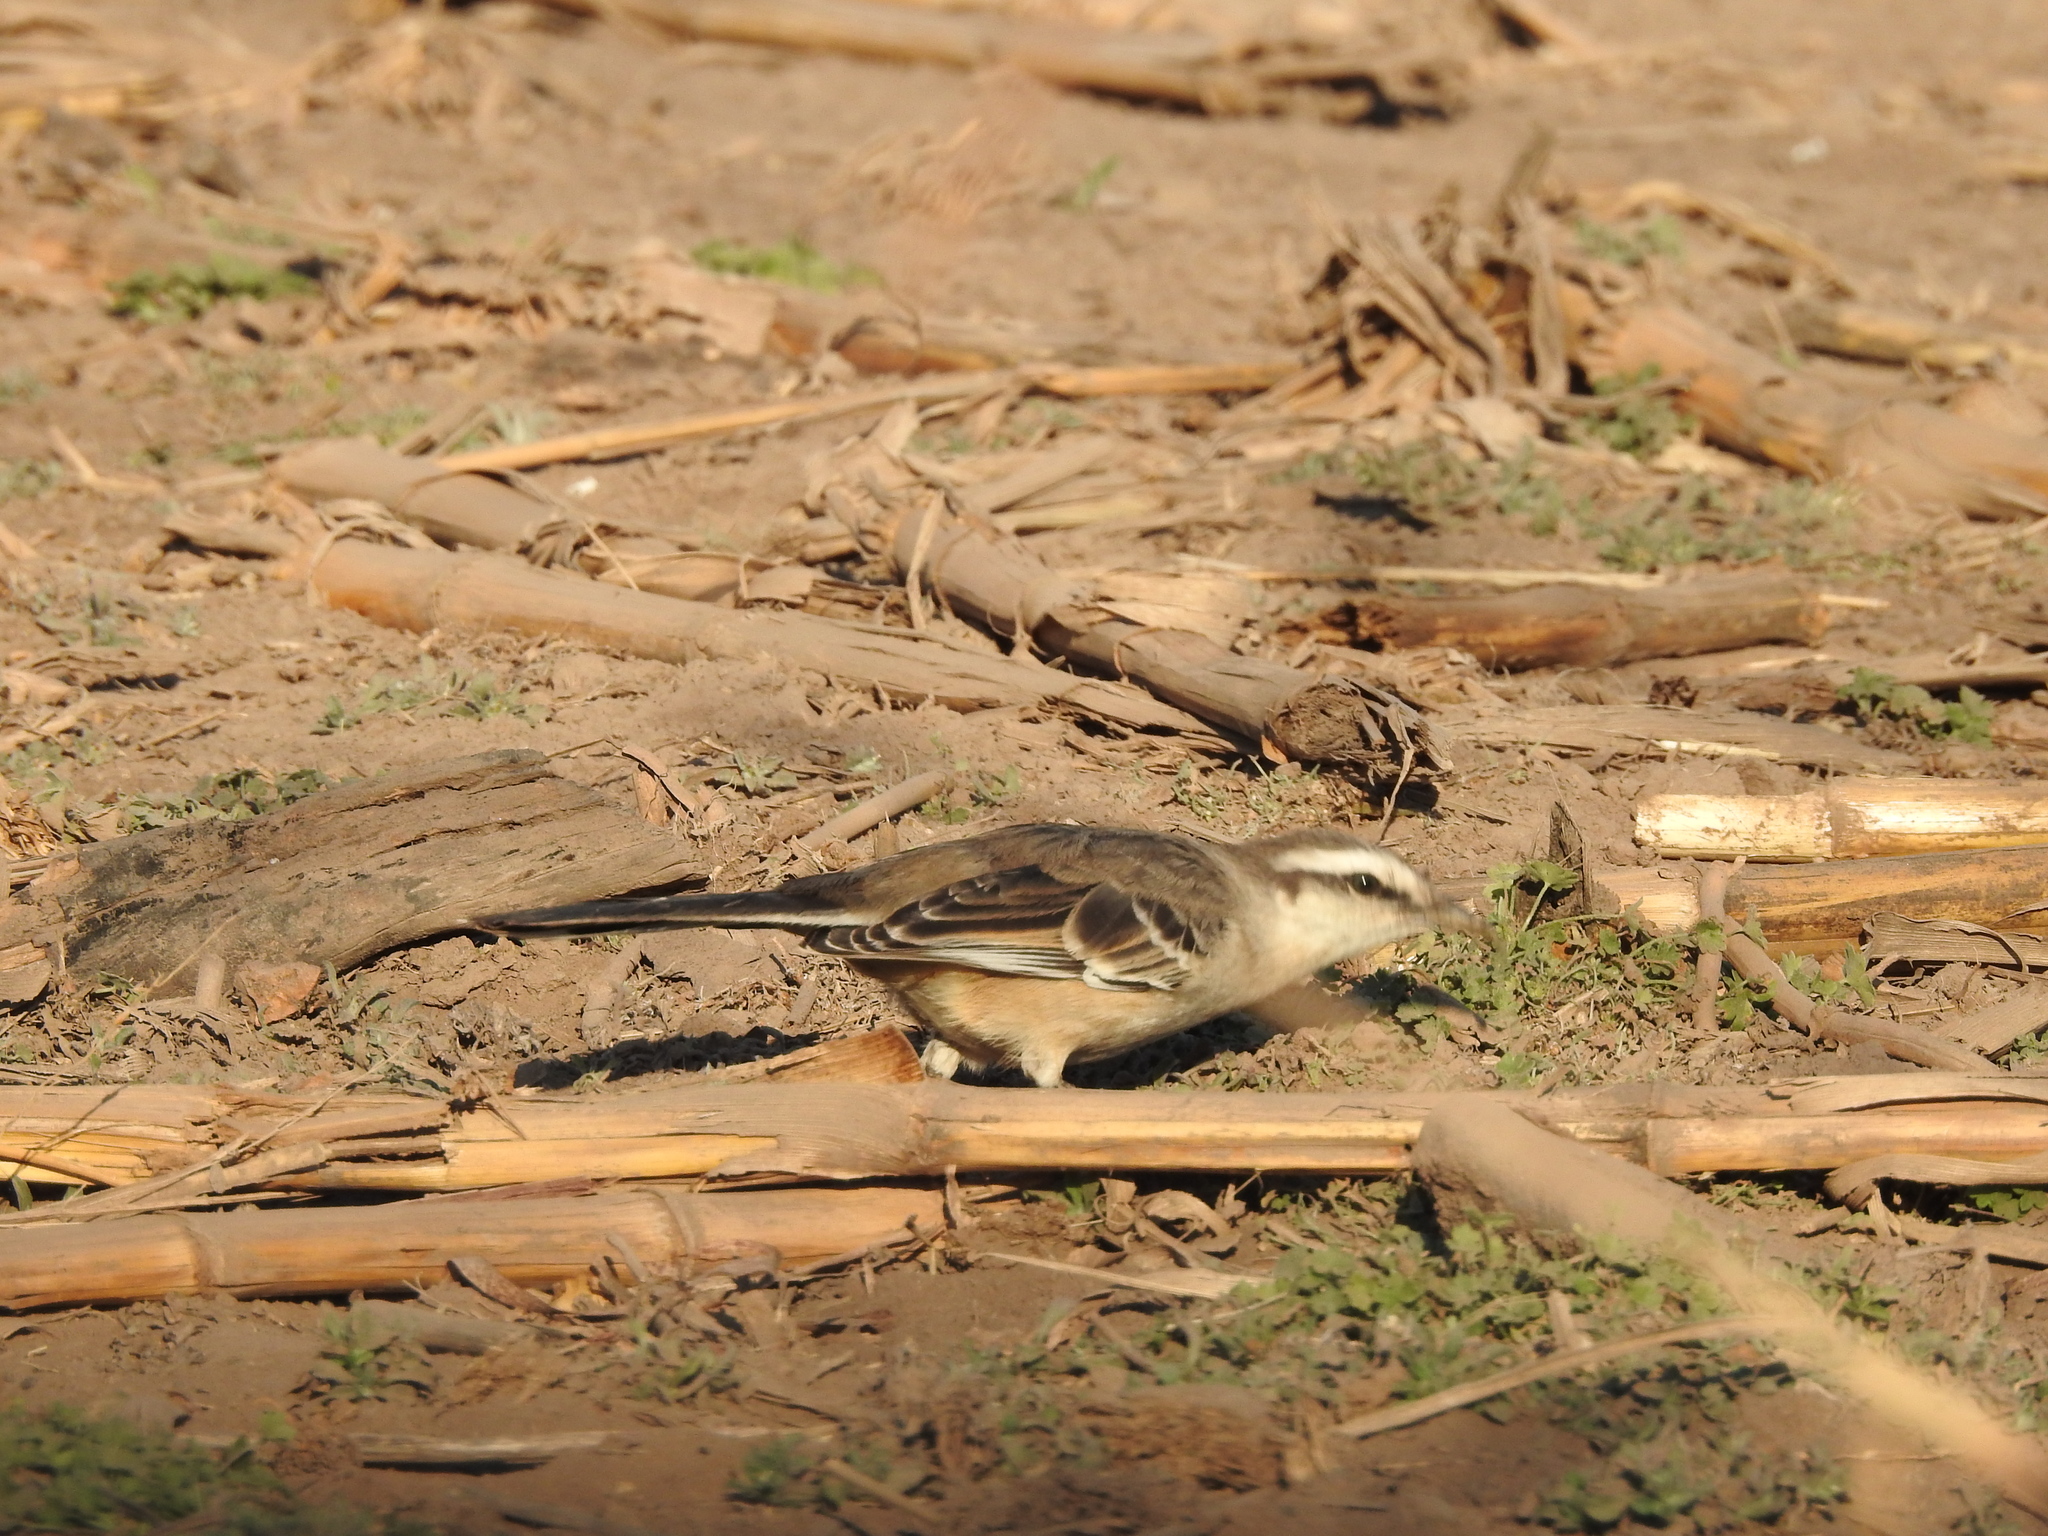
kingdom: Animalia
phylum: Chordata
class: Aves
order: Passeriformes
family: Mimidae
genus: Mimus
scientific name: Mimus saturninus
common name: Chalk-browed mockingbird
